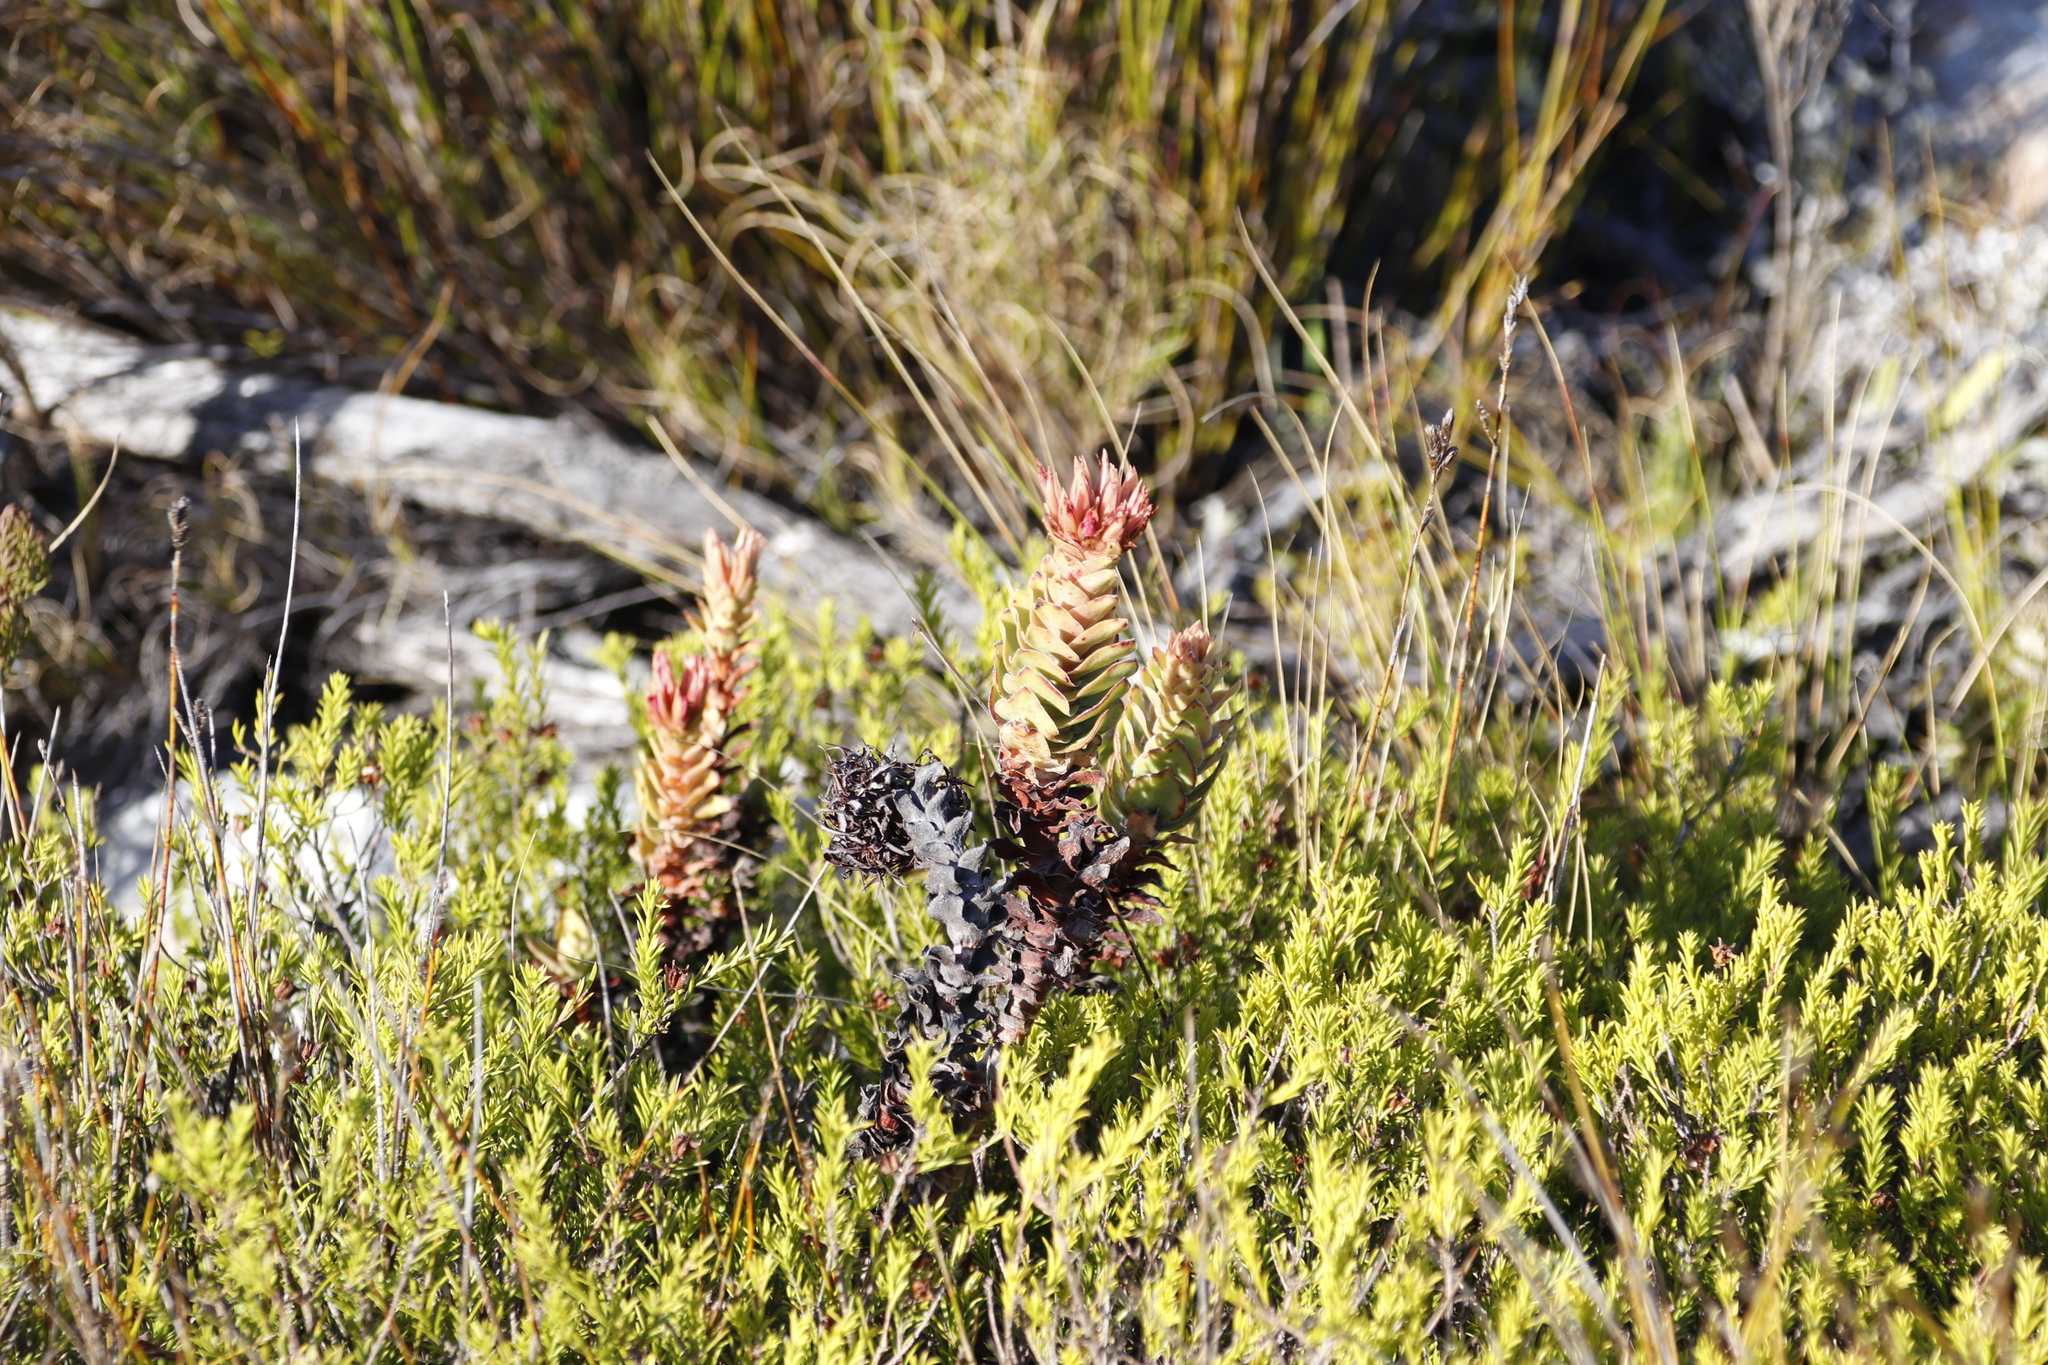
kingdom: Plantae
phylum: Tracheophyta
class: Magnoliopsida
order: Saxifragales
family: Crassulaceae
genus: Crassula
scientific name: Crassula coccinea
